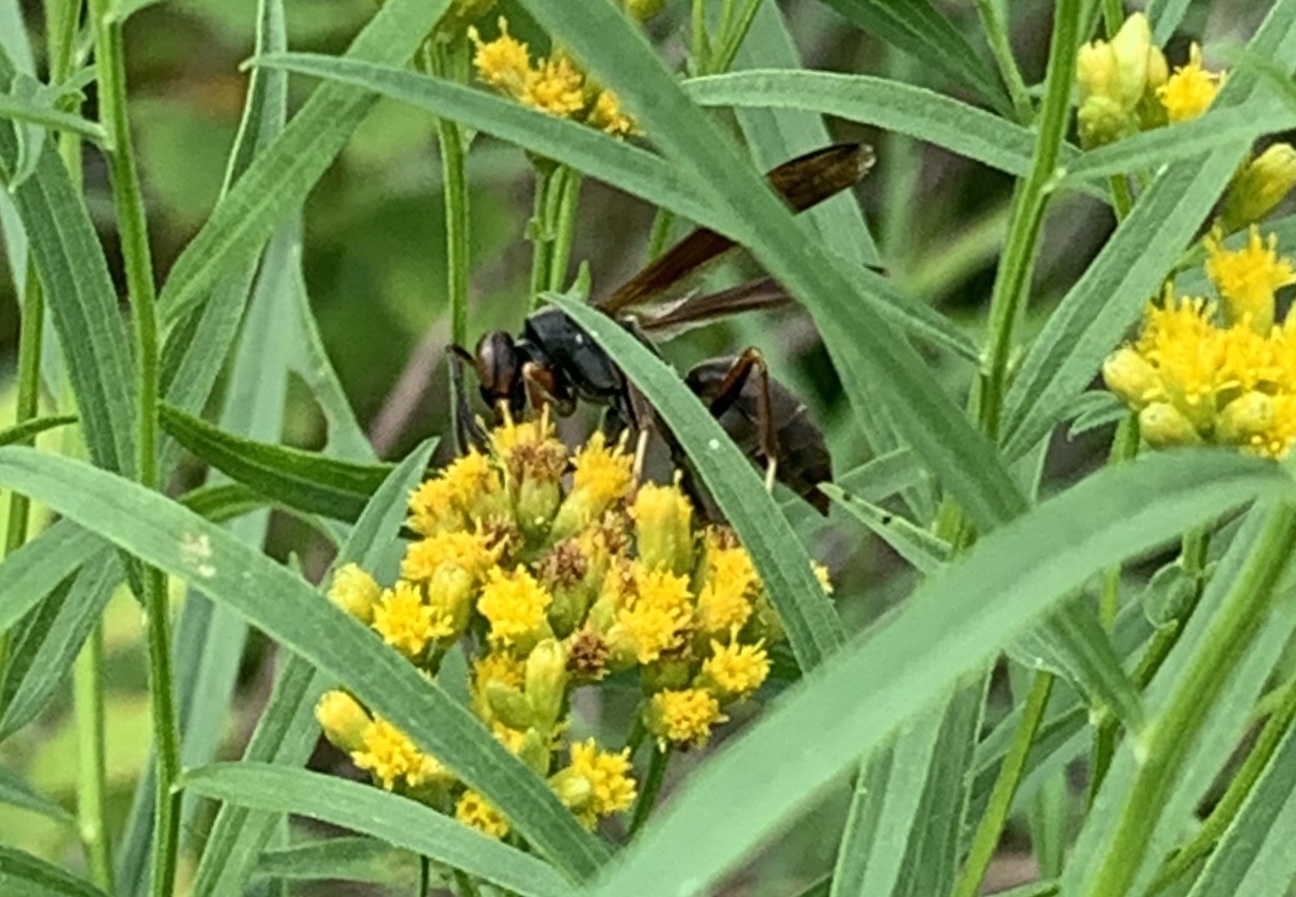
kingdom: Animalia
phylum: Arthropoda
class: Insecta
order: Hymenoptera
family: Eumenidae
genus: Polistes
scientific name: Polistes fuscatus
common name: Dark paper wasp
